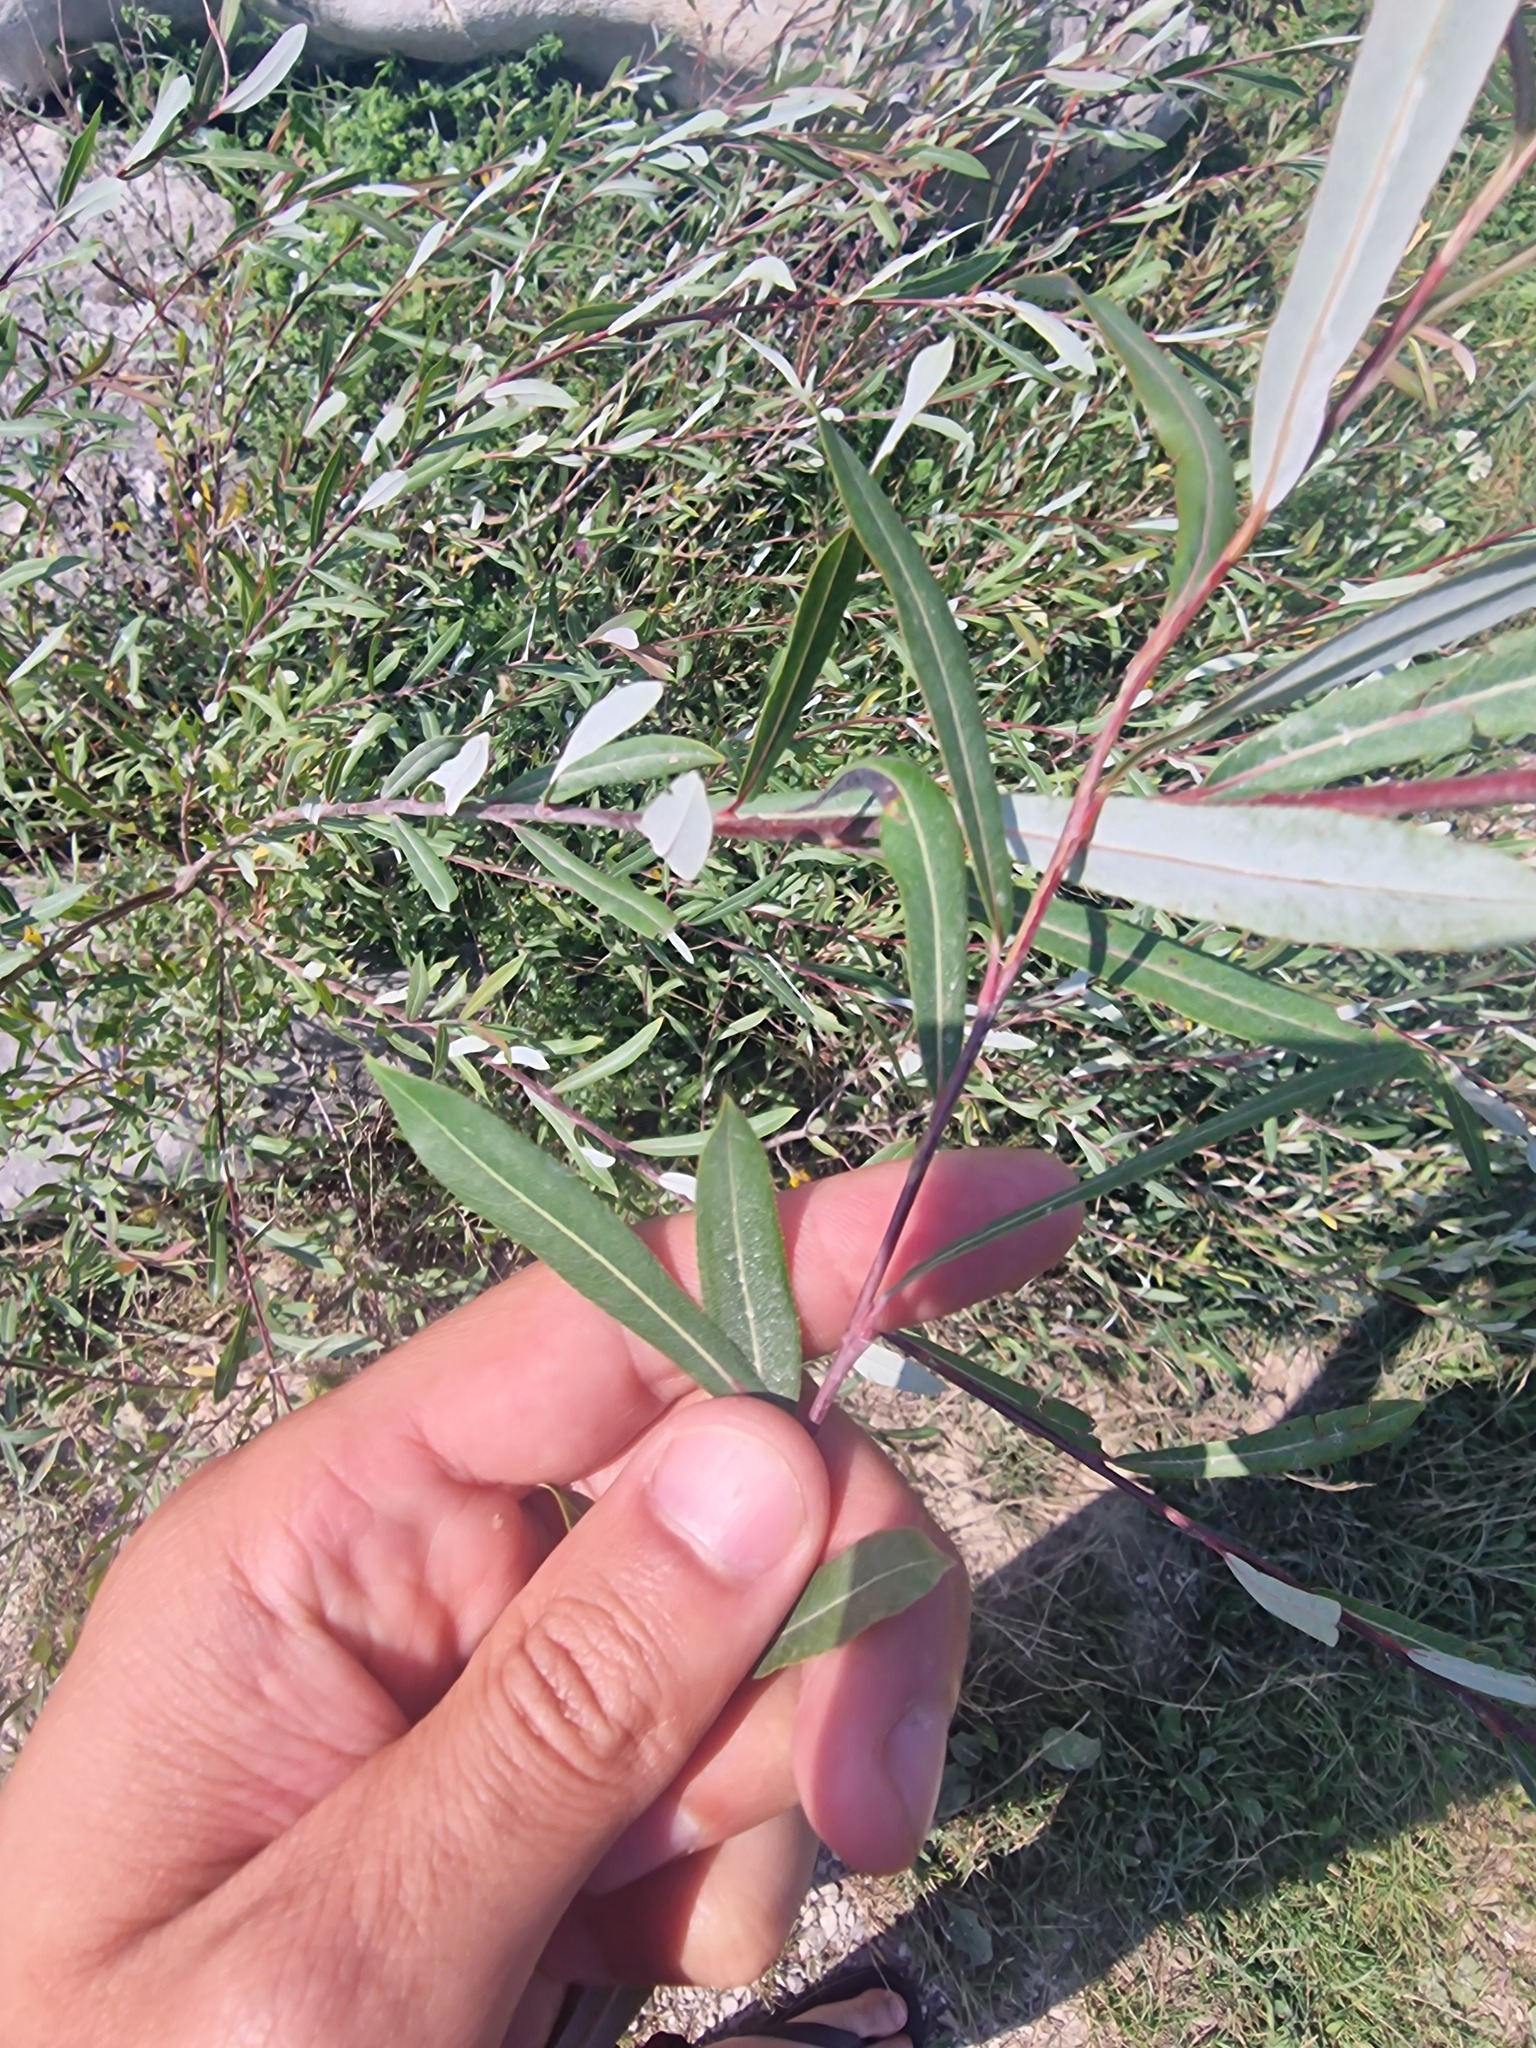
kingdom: Plantae
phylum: Tracheophyta
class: Magnoliopsida
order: Malpighiales
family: Salicaceae
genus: Salix
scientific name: Salix purpurea
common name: Purple willow
